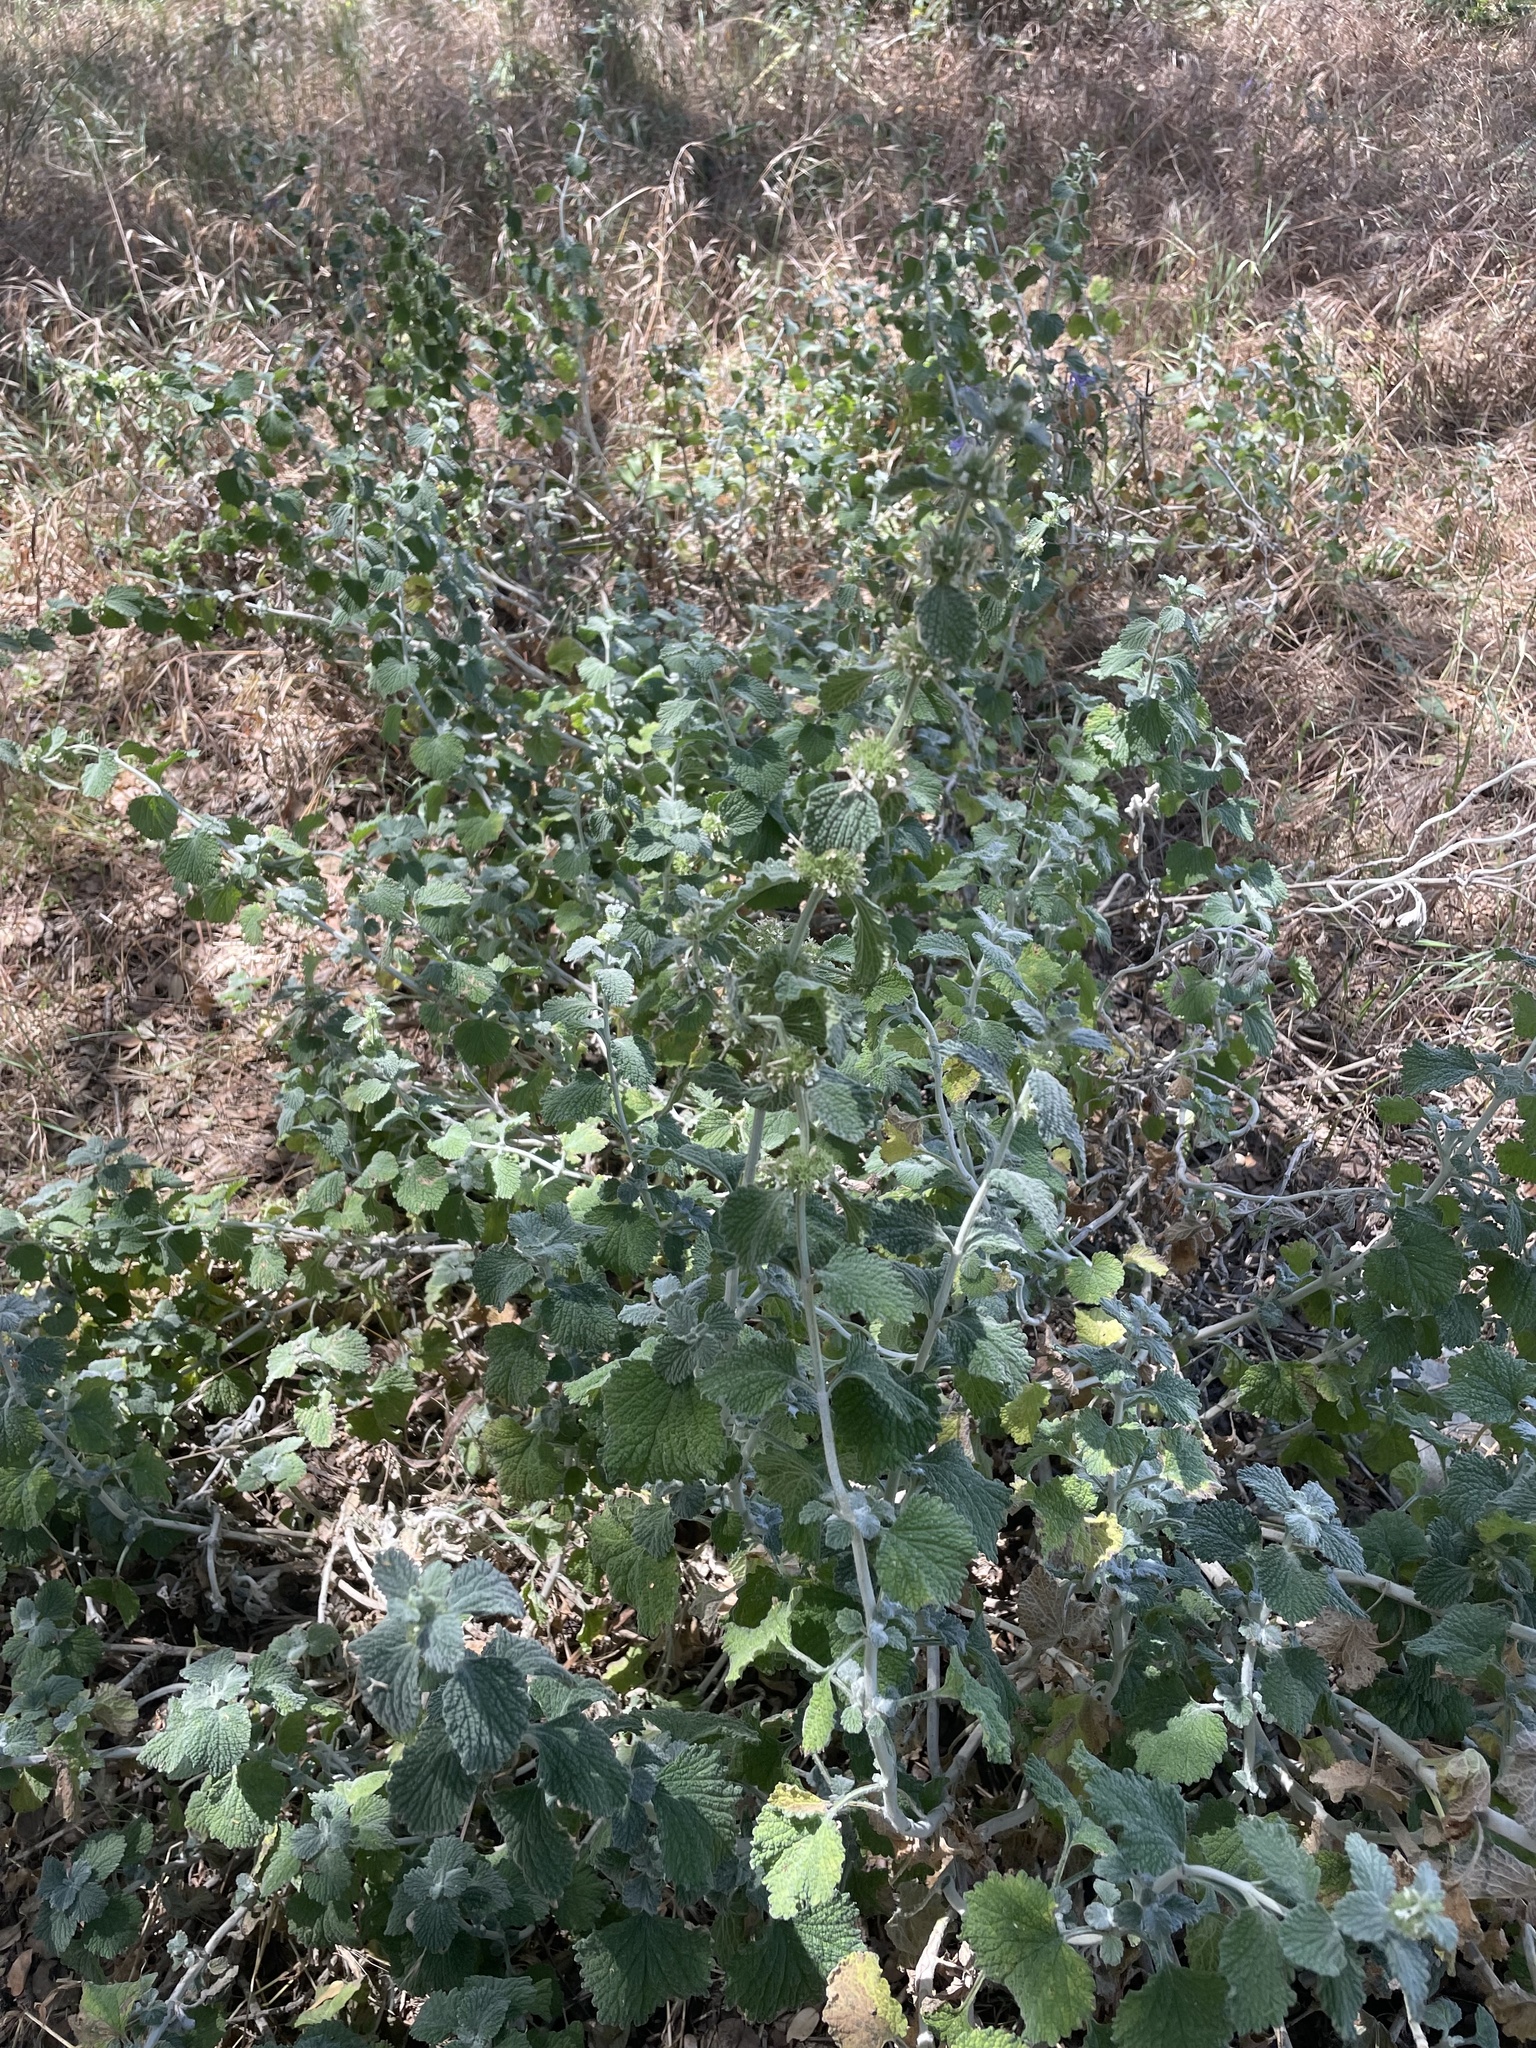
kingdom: Plantae
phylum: Tracheophyta
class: Magnoliopsida
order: Lamiales
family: Lamiaceae
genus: Marrubium
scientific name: Marrubium vulgare
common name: Horehound
